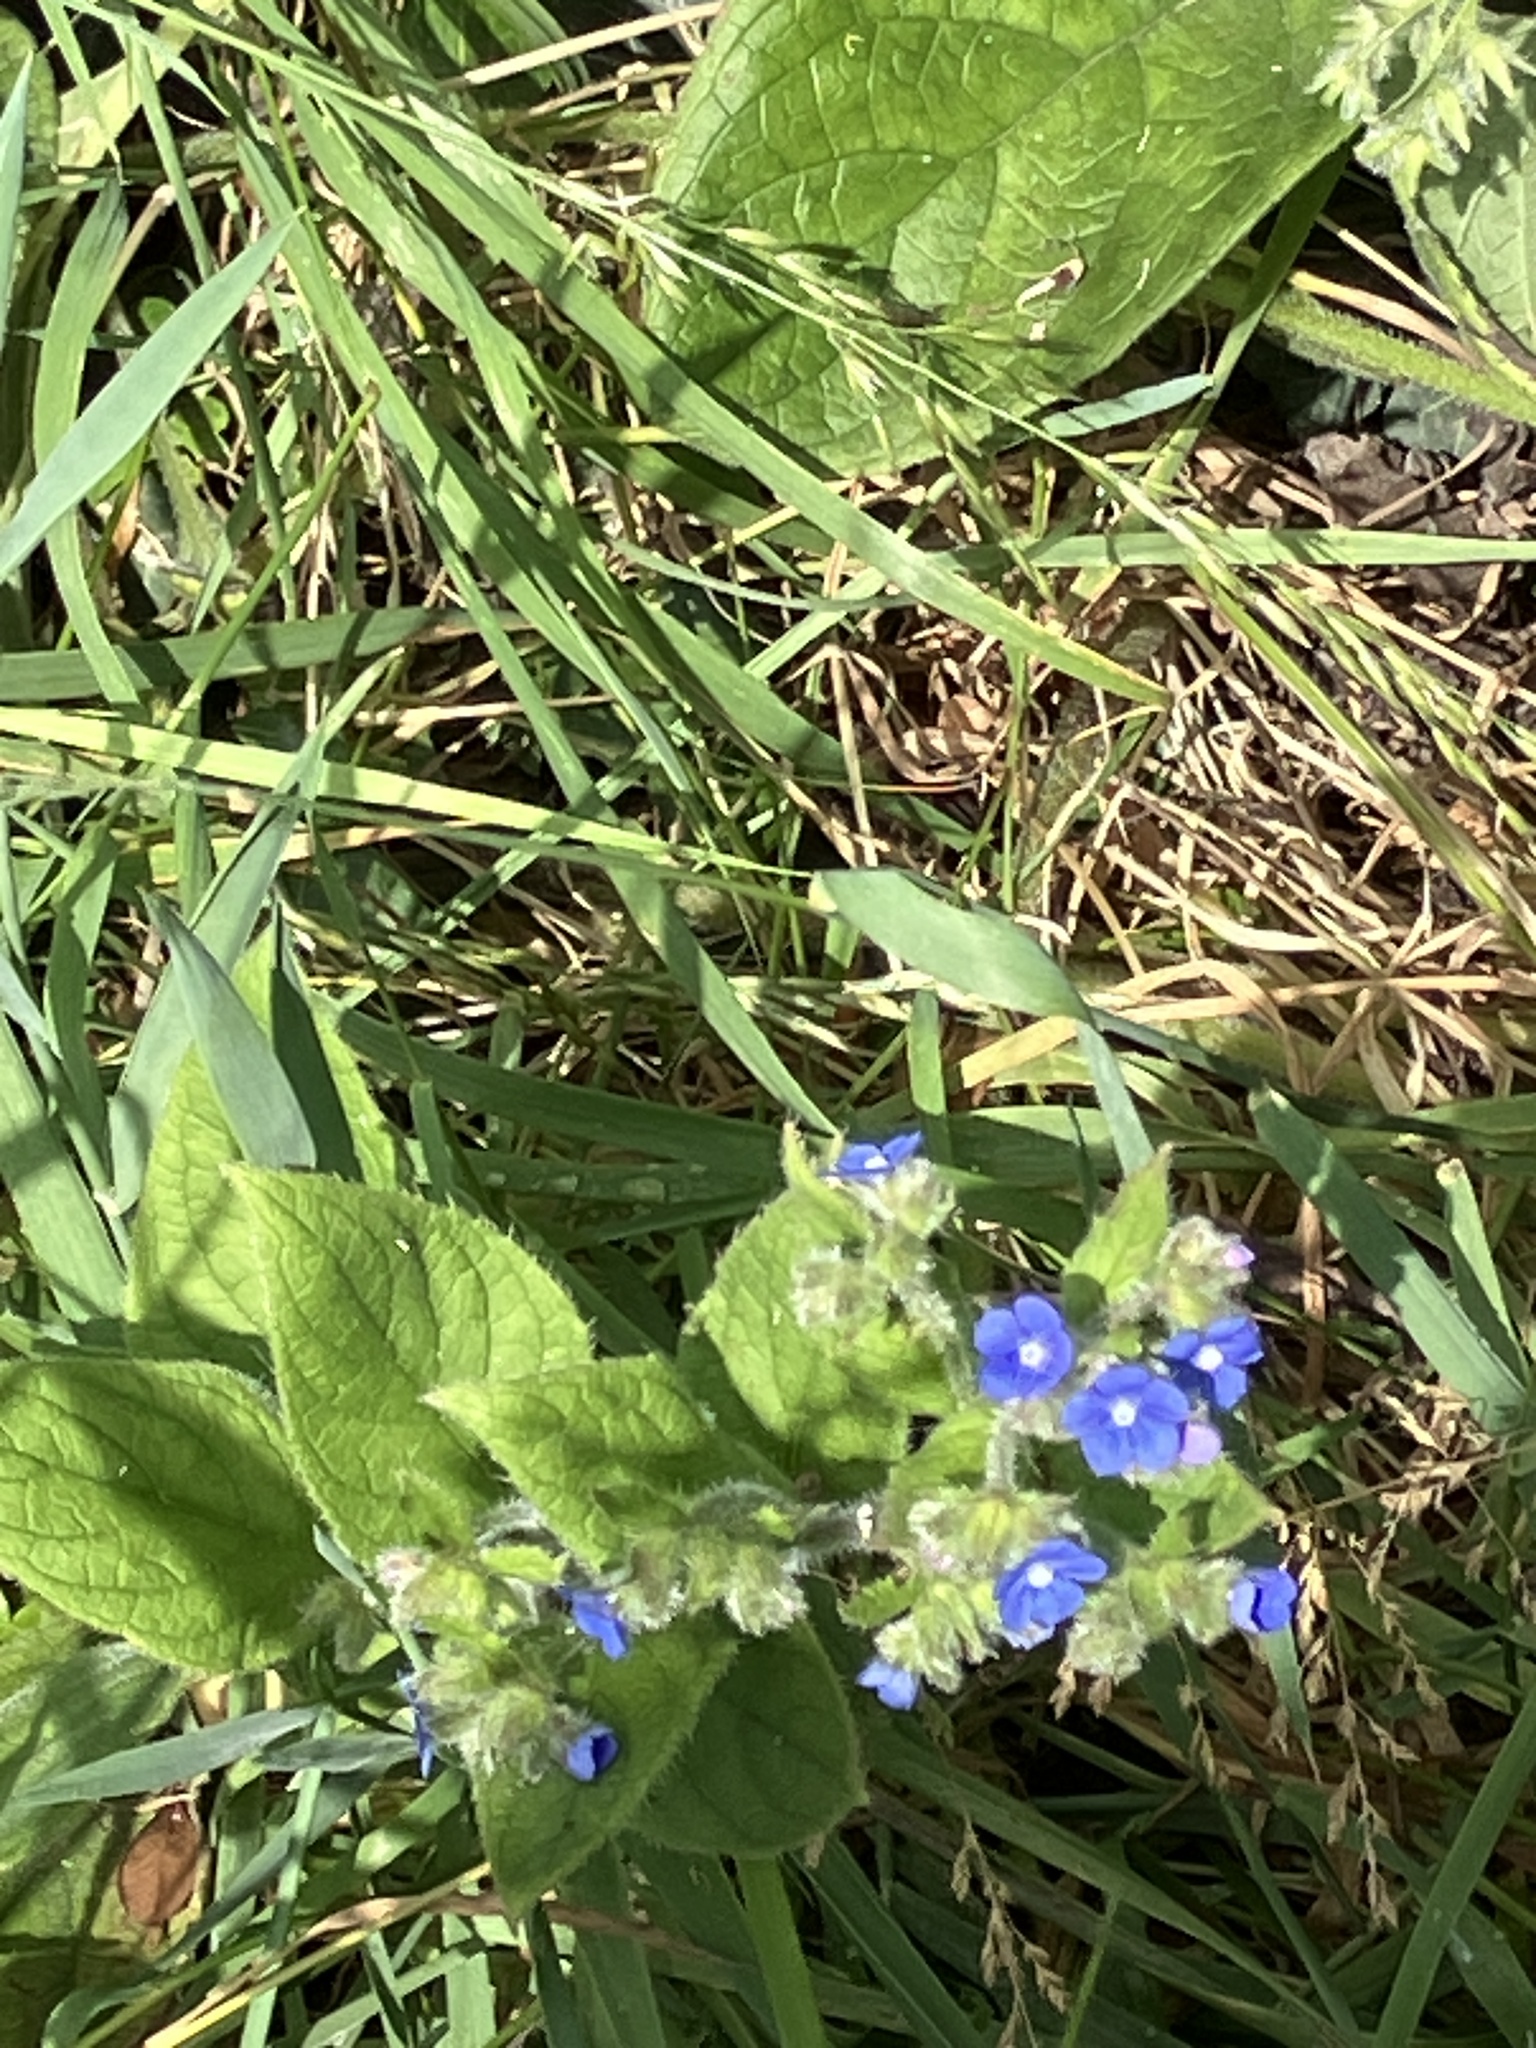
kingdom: Plantae
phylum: Tracheophyta
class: Magnoliopsida
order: Boraginales
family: Boraginaceae
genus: Pentaglottis
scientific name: Pentaglottis sempervirens
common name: Green alkanet
